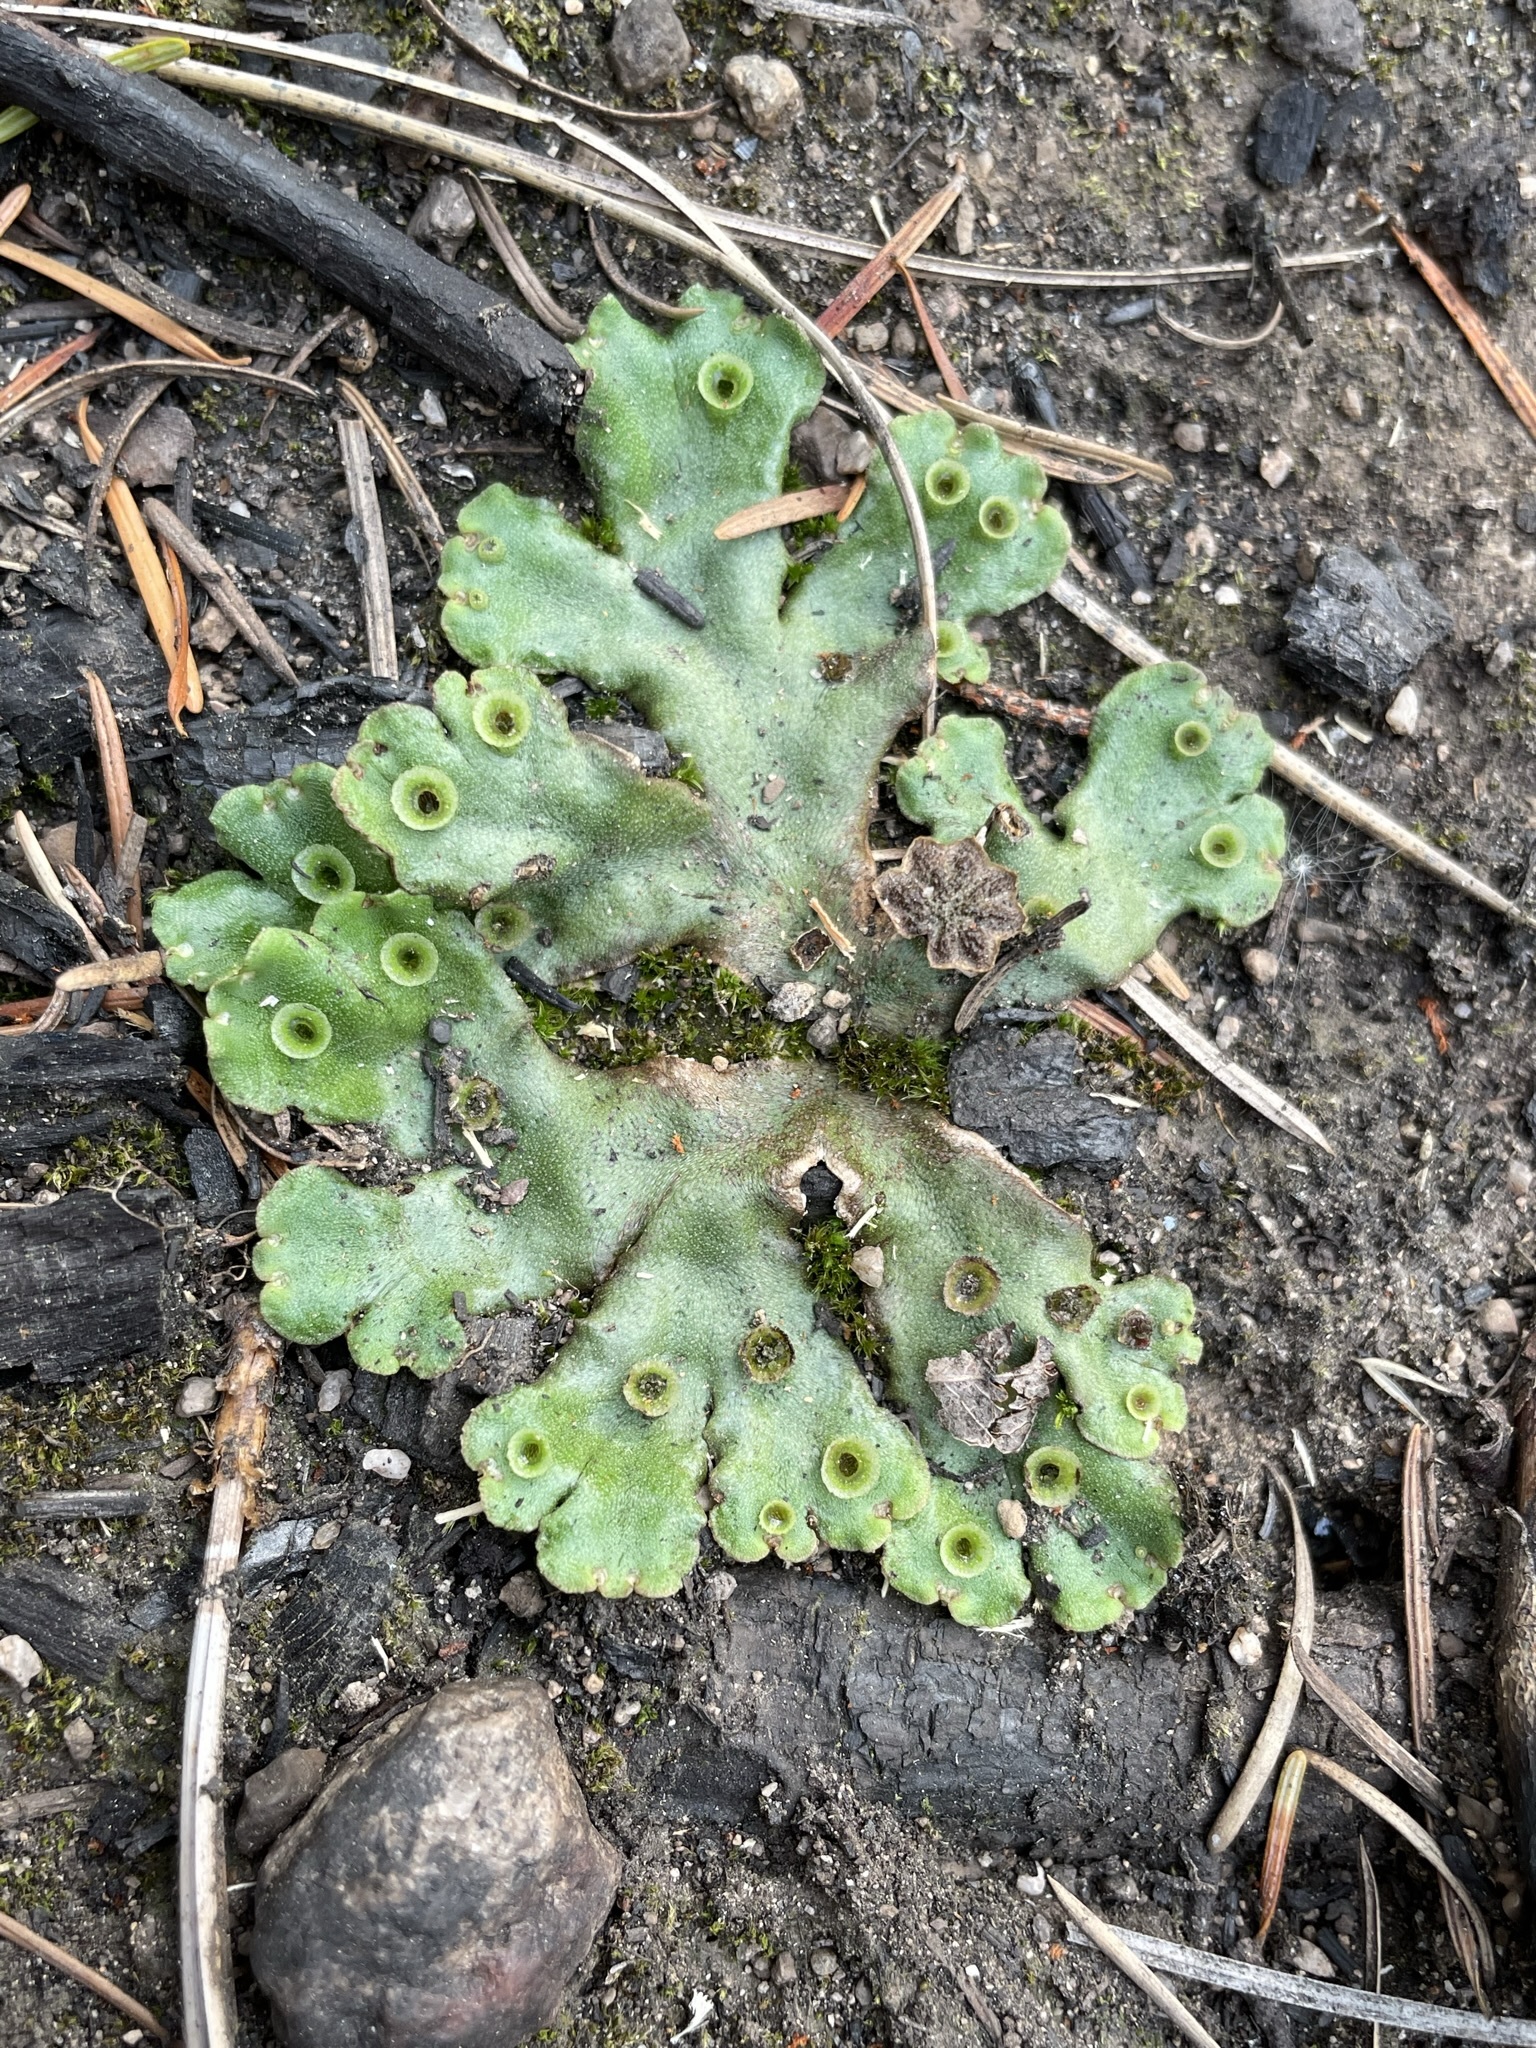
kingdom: Plantae
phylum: Marchantiophyta
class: Marchantiopsida
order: Marchantiales
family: Marchantiaceae
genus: Marchantia
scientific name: Marchantia polymorpha
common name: Common liverwort
